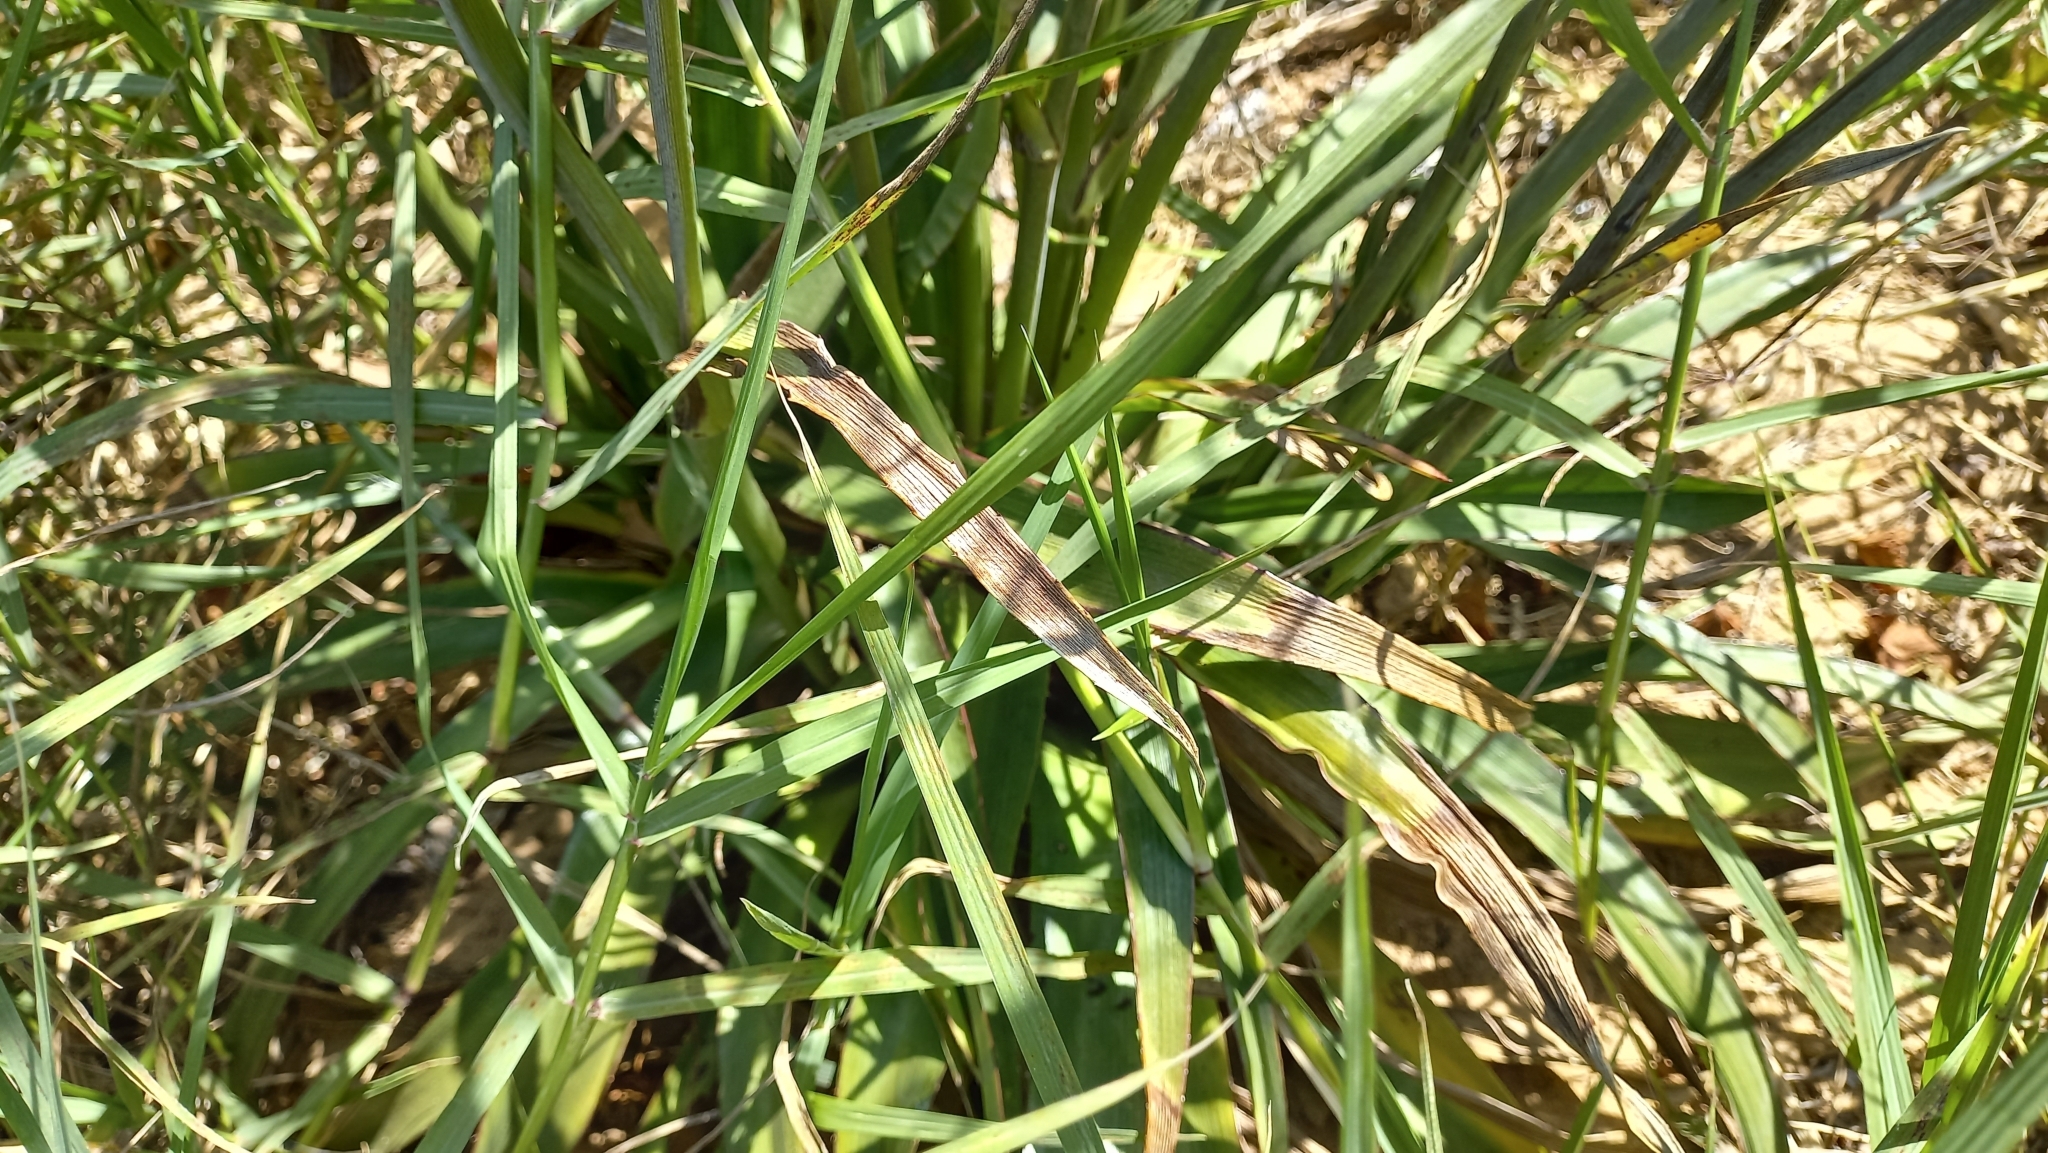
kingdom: Plantae
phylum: Tracheophyta
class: Magnoliopsida
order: Apiales
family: Apiaceae
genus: Eryngium
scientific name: Eryngium sanguisorba
